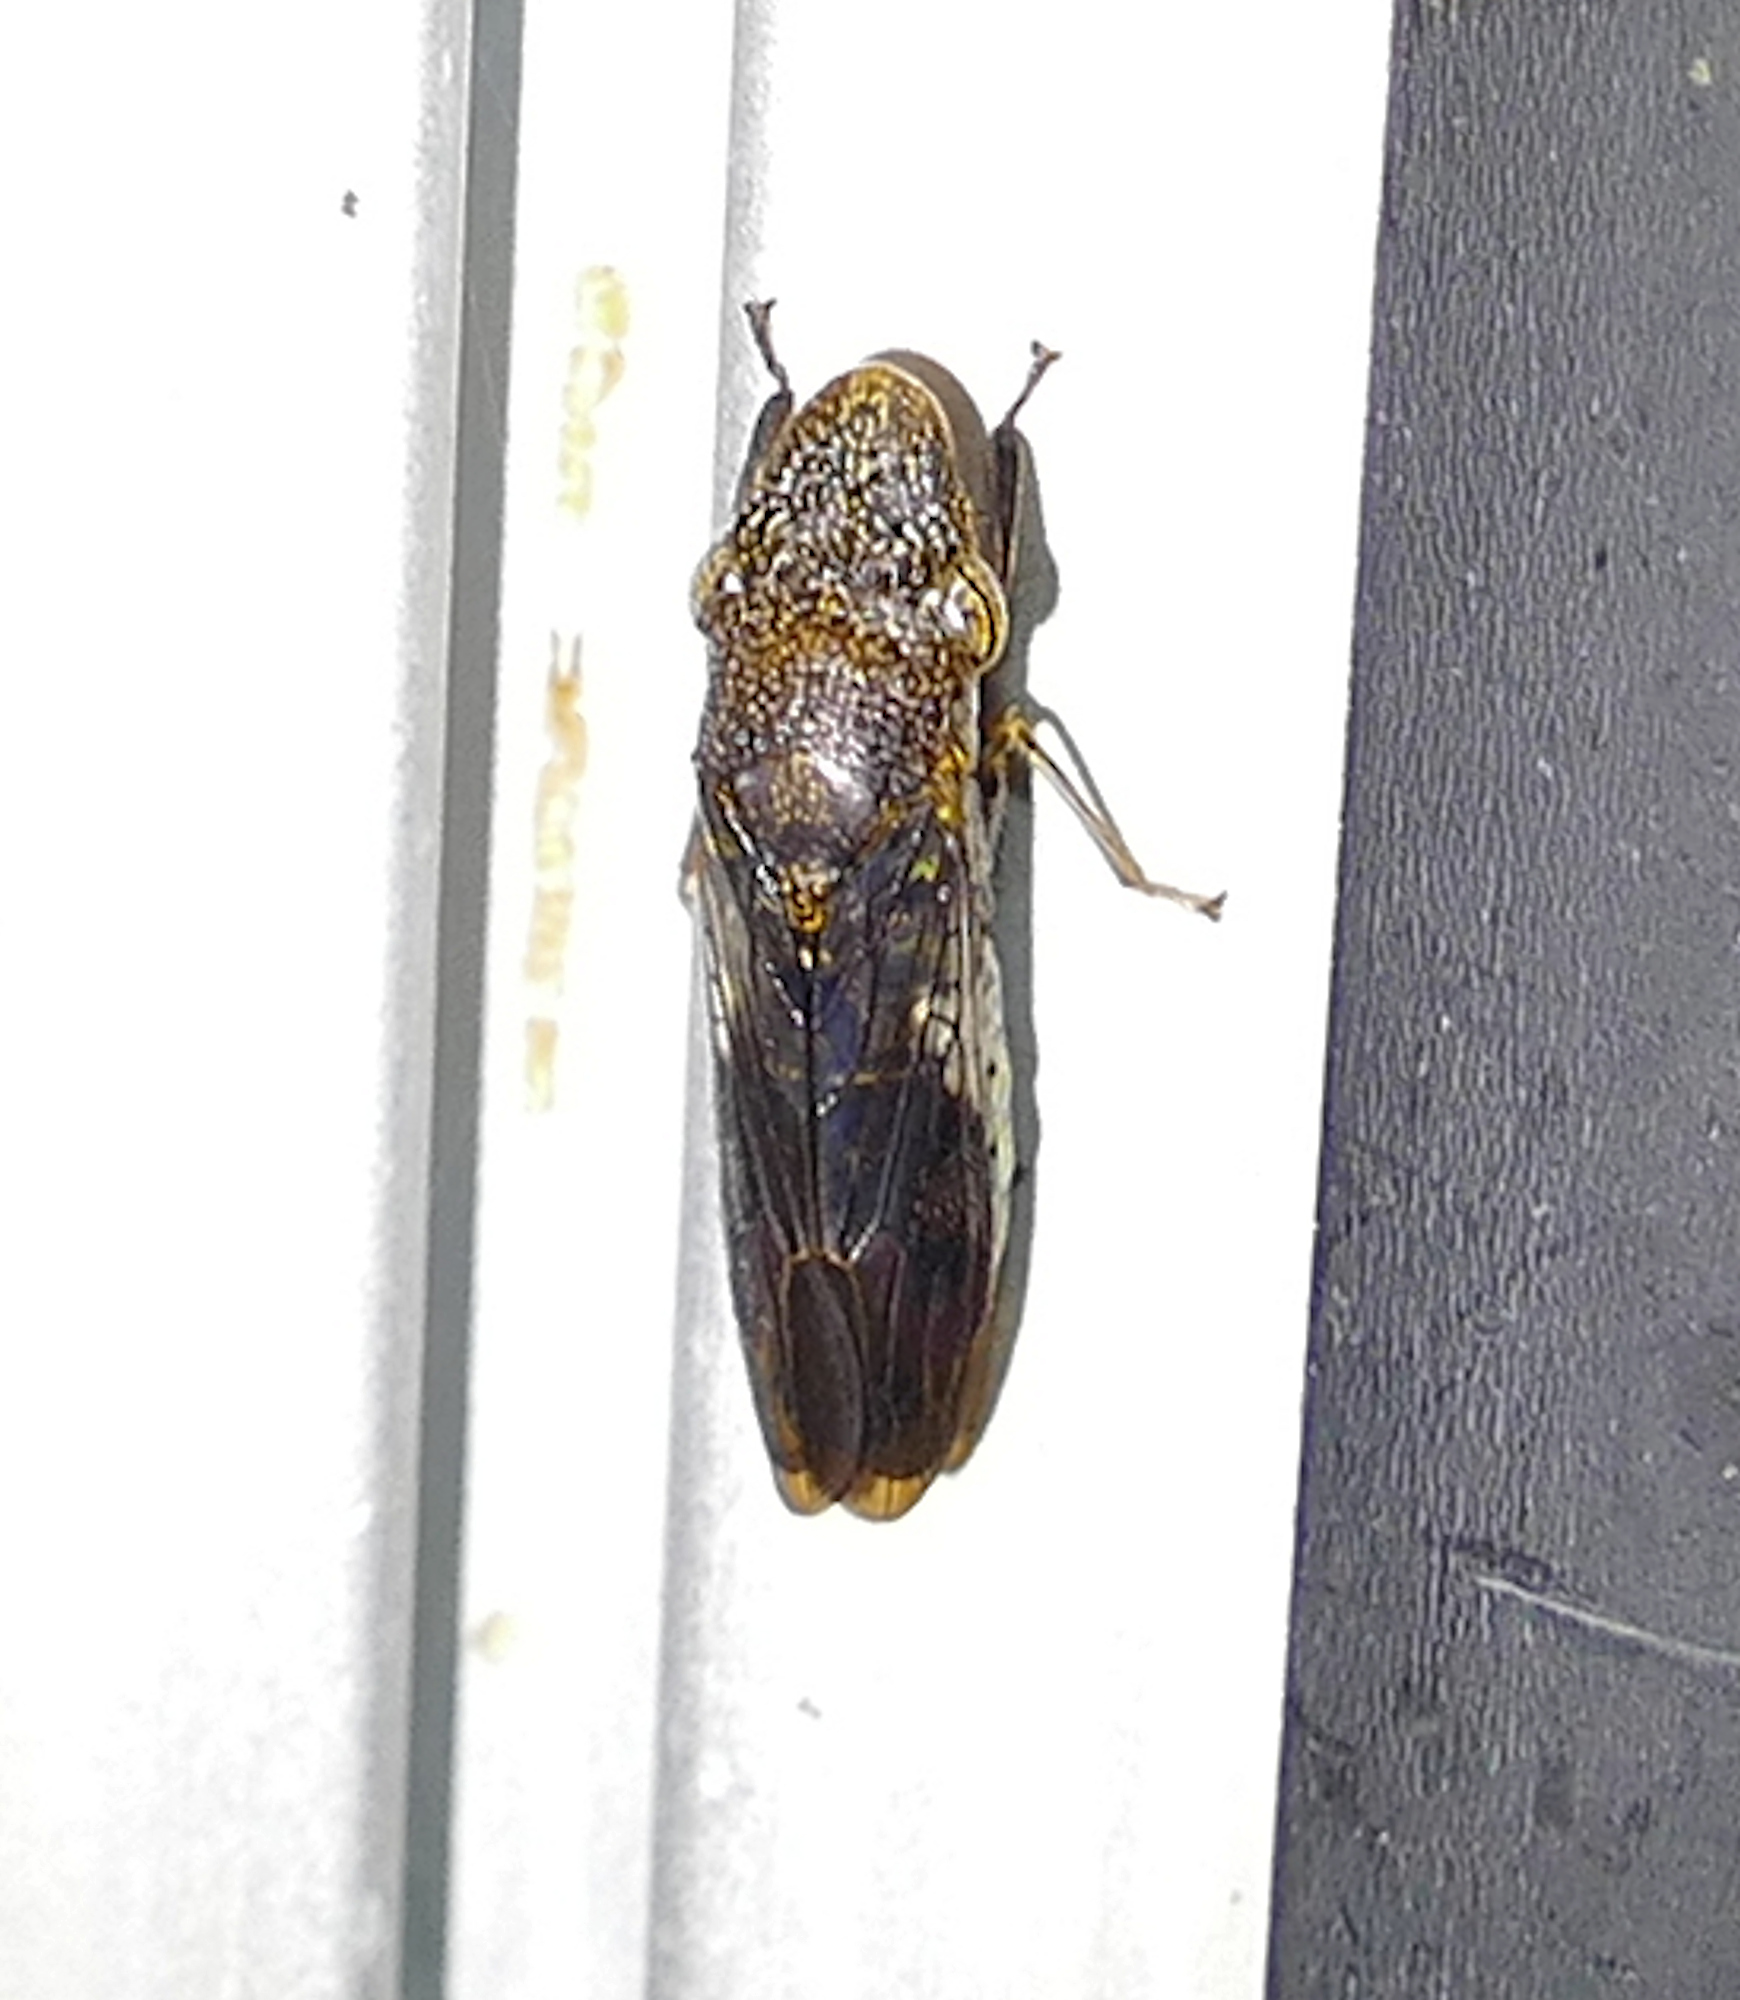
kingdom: Animalia
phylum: Arthropoda
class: Insecta
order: Hemiptera
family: Cicadellidae
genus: Homalodisca
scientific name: Homalodisca vitripennis
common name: Glassy-winged sharpshooter
